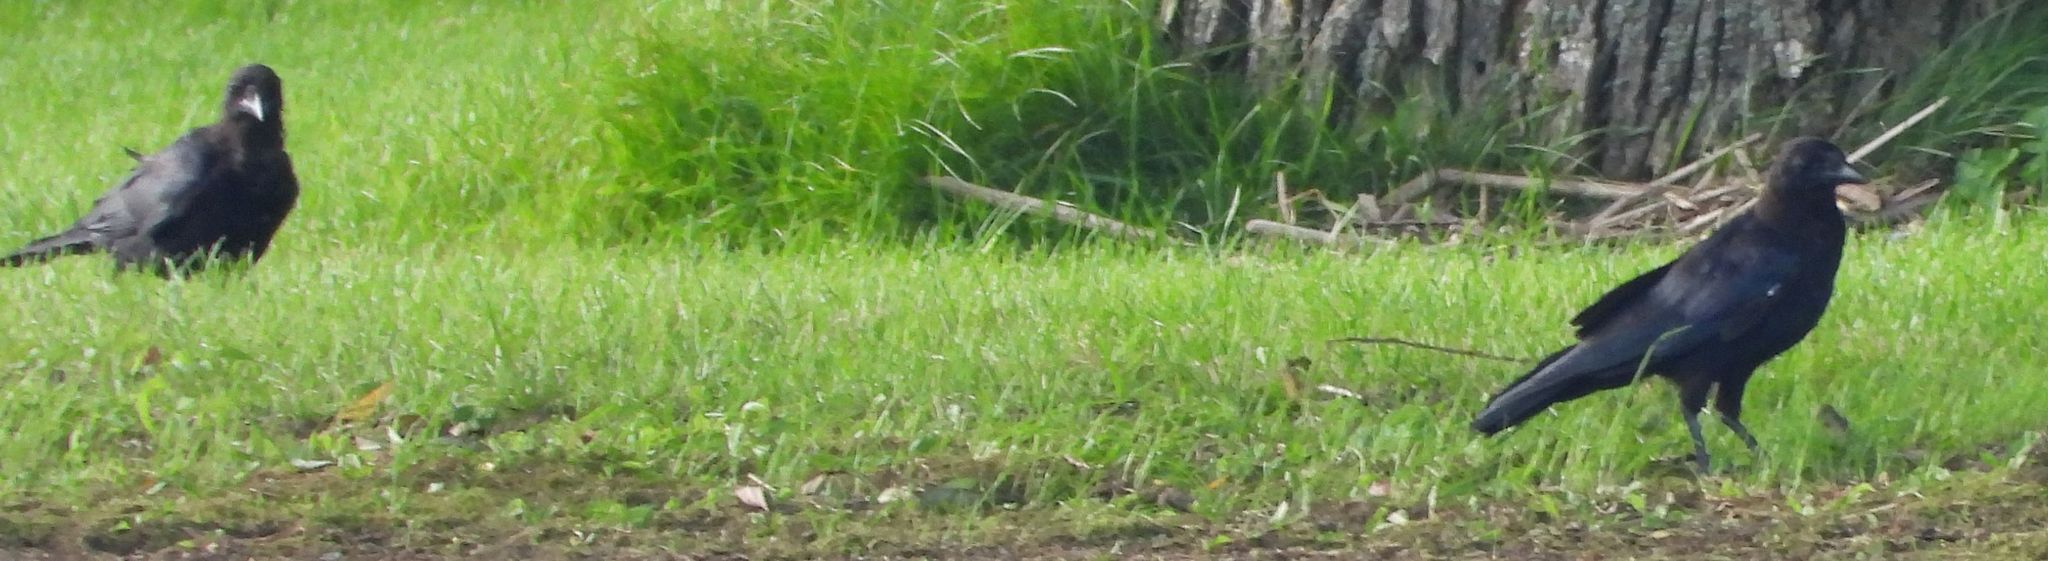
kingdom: Animalia
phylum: Chordata
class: Aves
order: Passeriformes
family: Corvidae
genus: Corvus
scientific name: Corvus brachyrhynchos
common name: American crow
